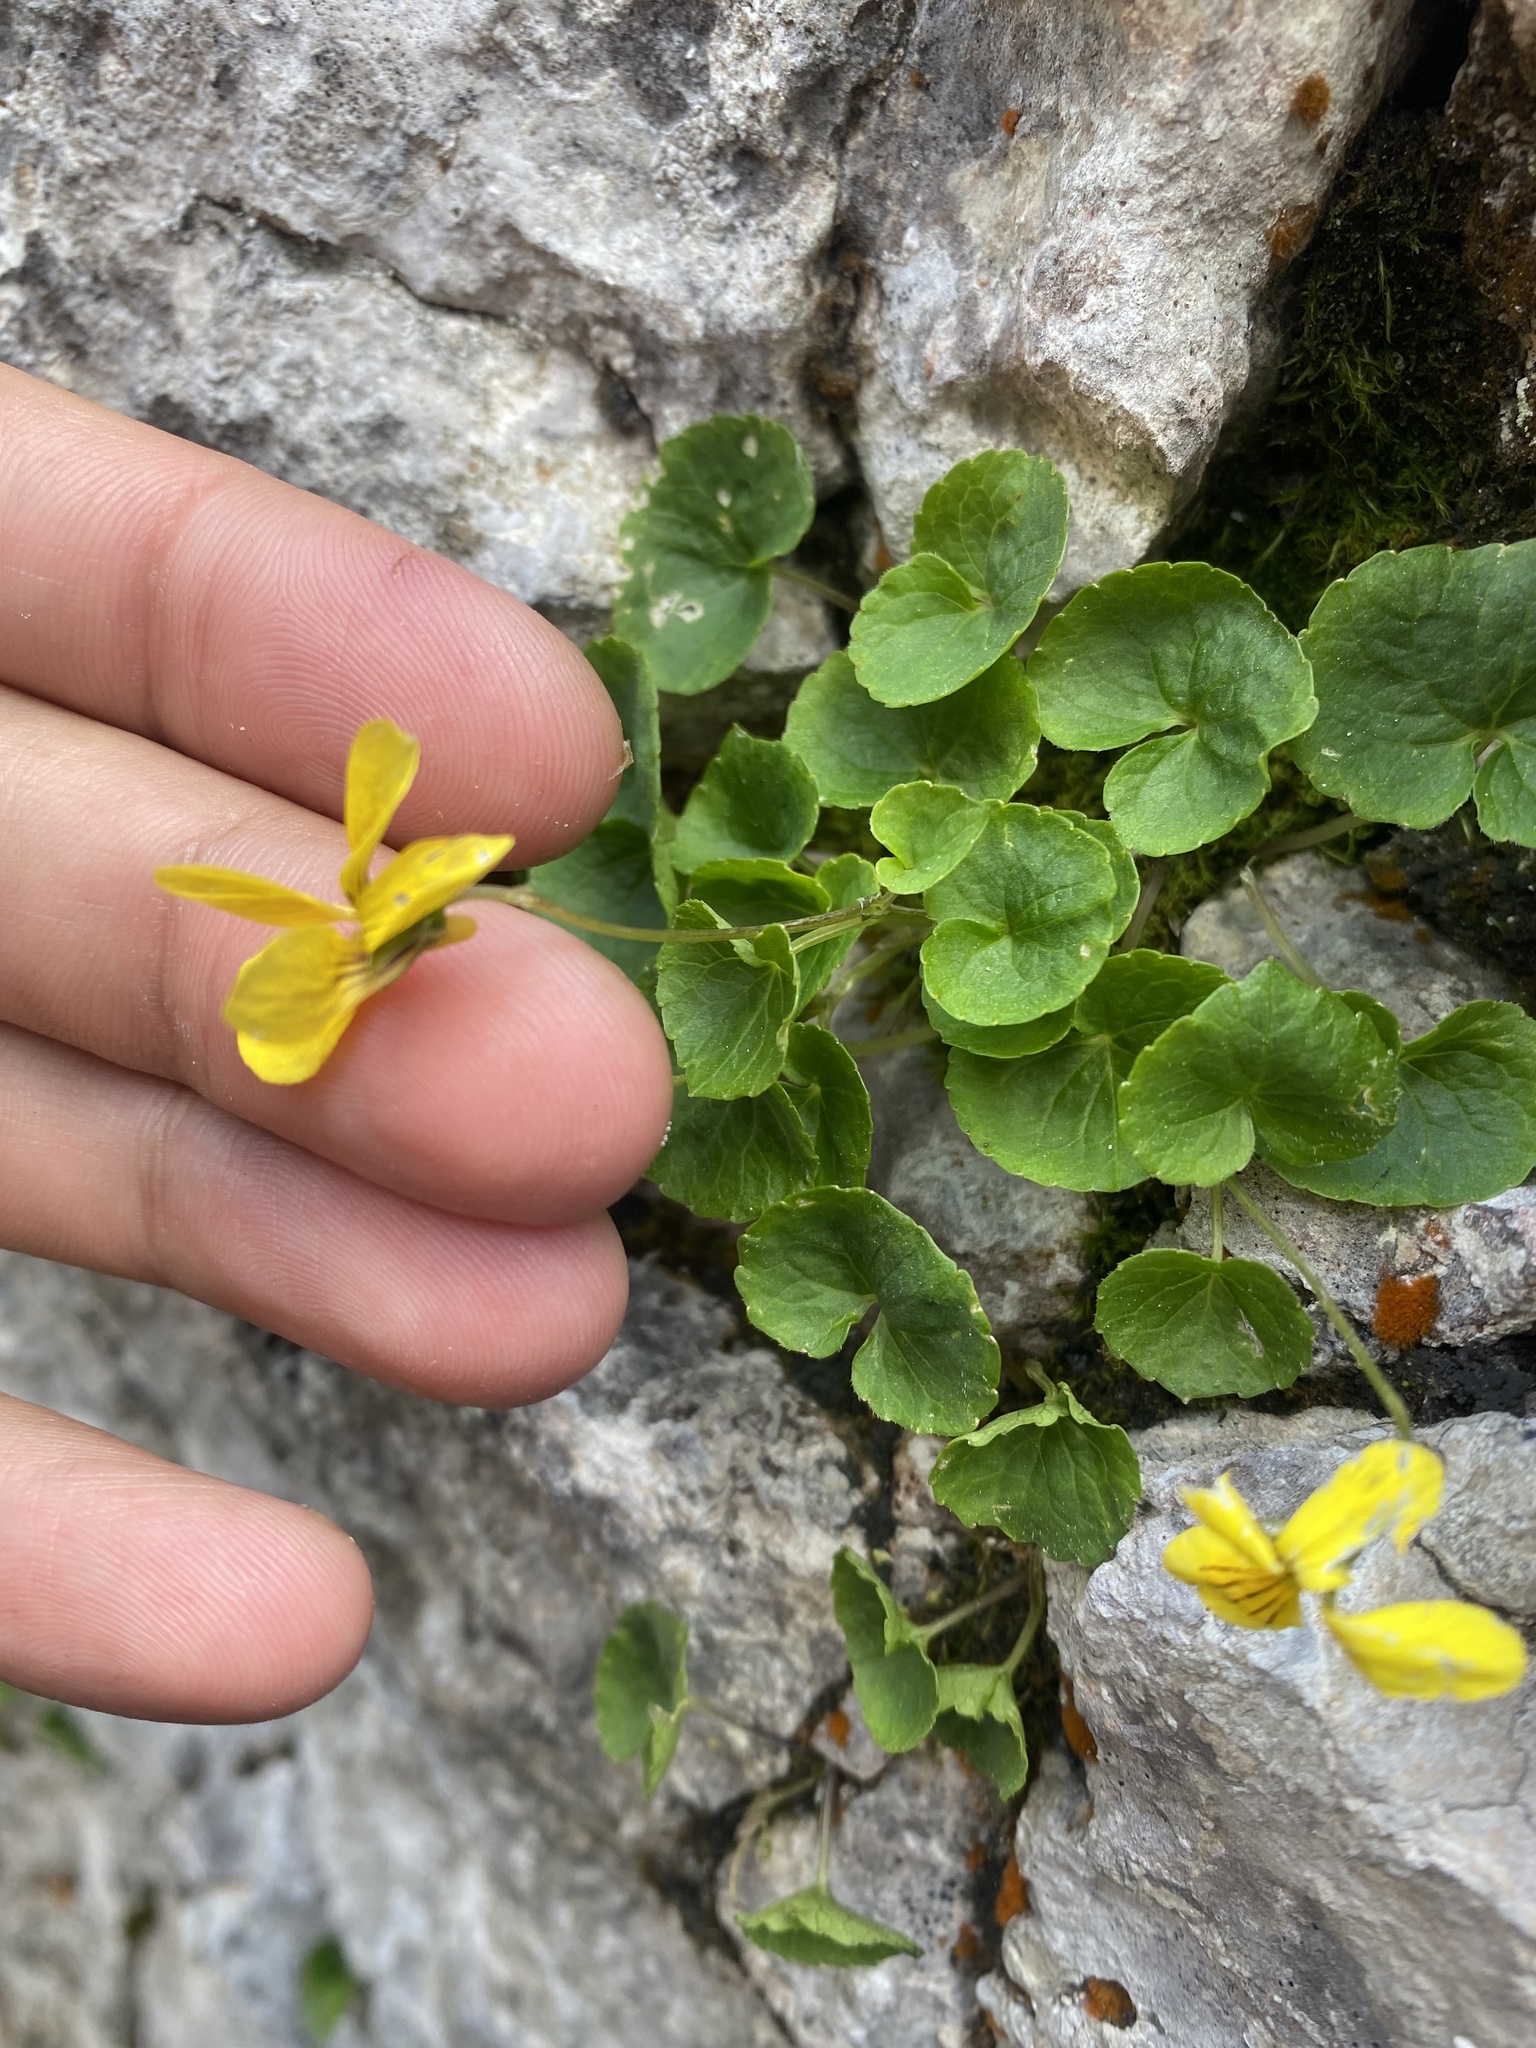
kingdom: Plantae
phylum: Tracheophyta
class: Magnoliopsida
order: Malpighiales
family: Violaceae
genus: Viola
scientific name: Viola caucasica
